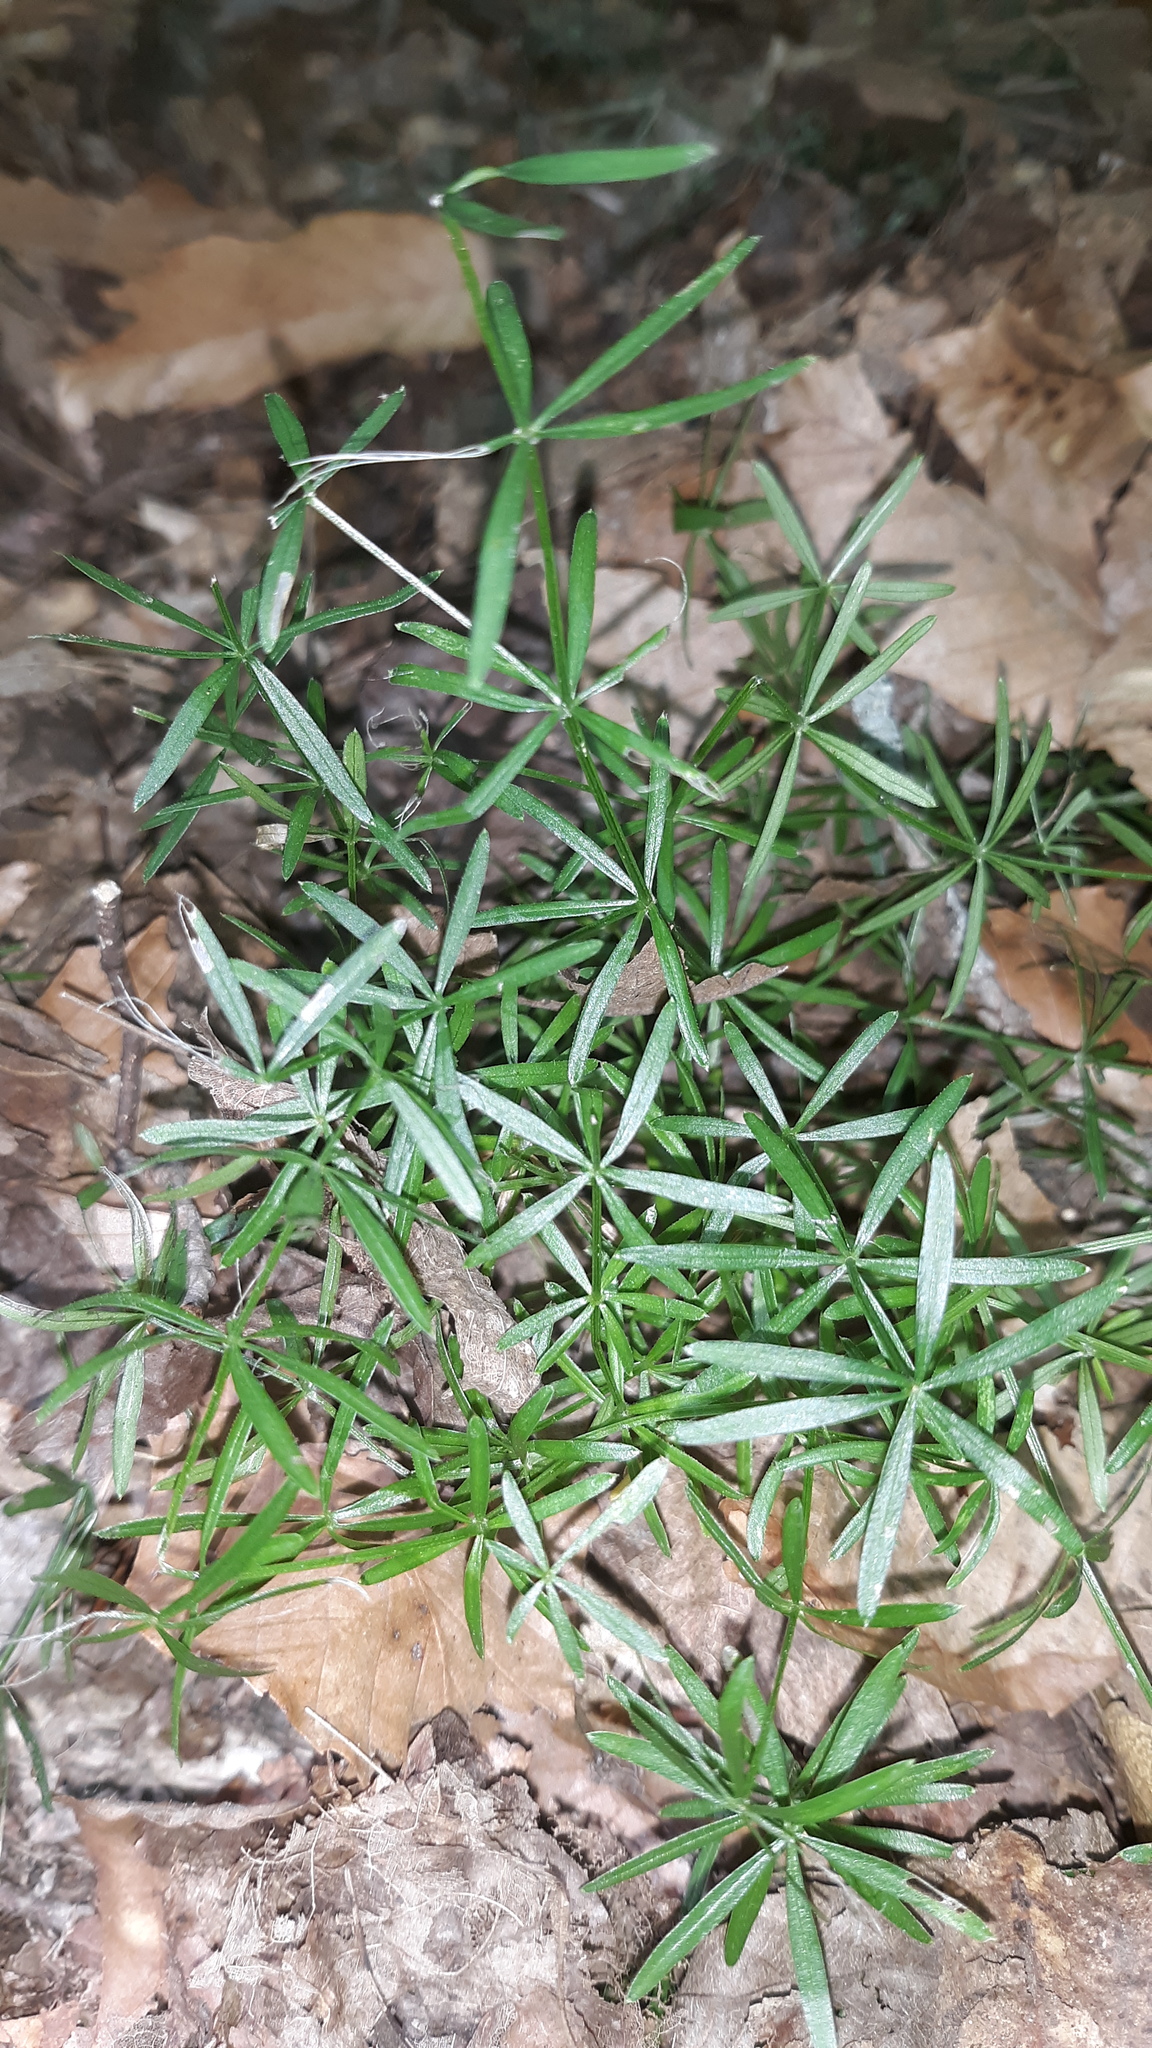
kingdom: Plantae
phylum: Tracheophyta
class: Magnoliopsida
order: Gentianales
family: Rubiaceae
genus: Galium
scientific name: Galium concinnum
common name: Shining bedstraw
